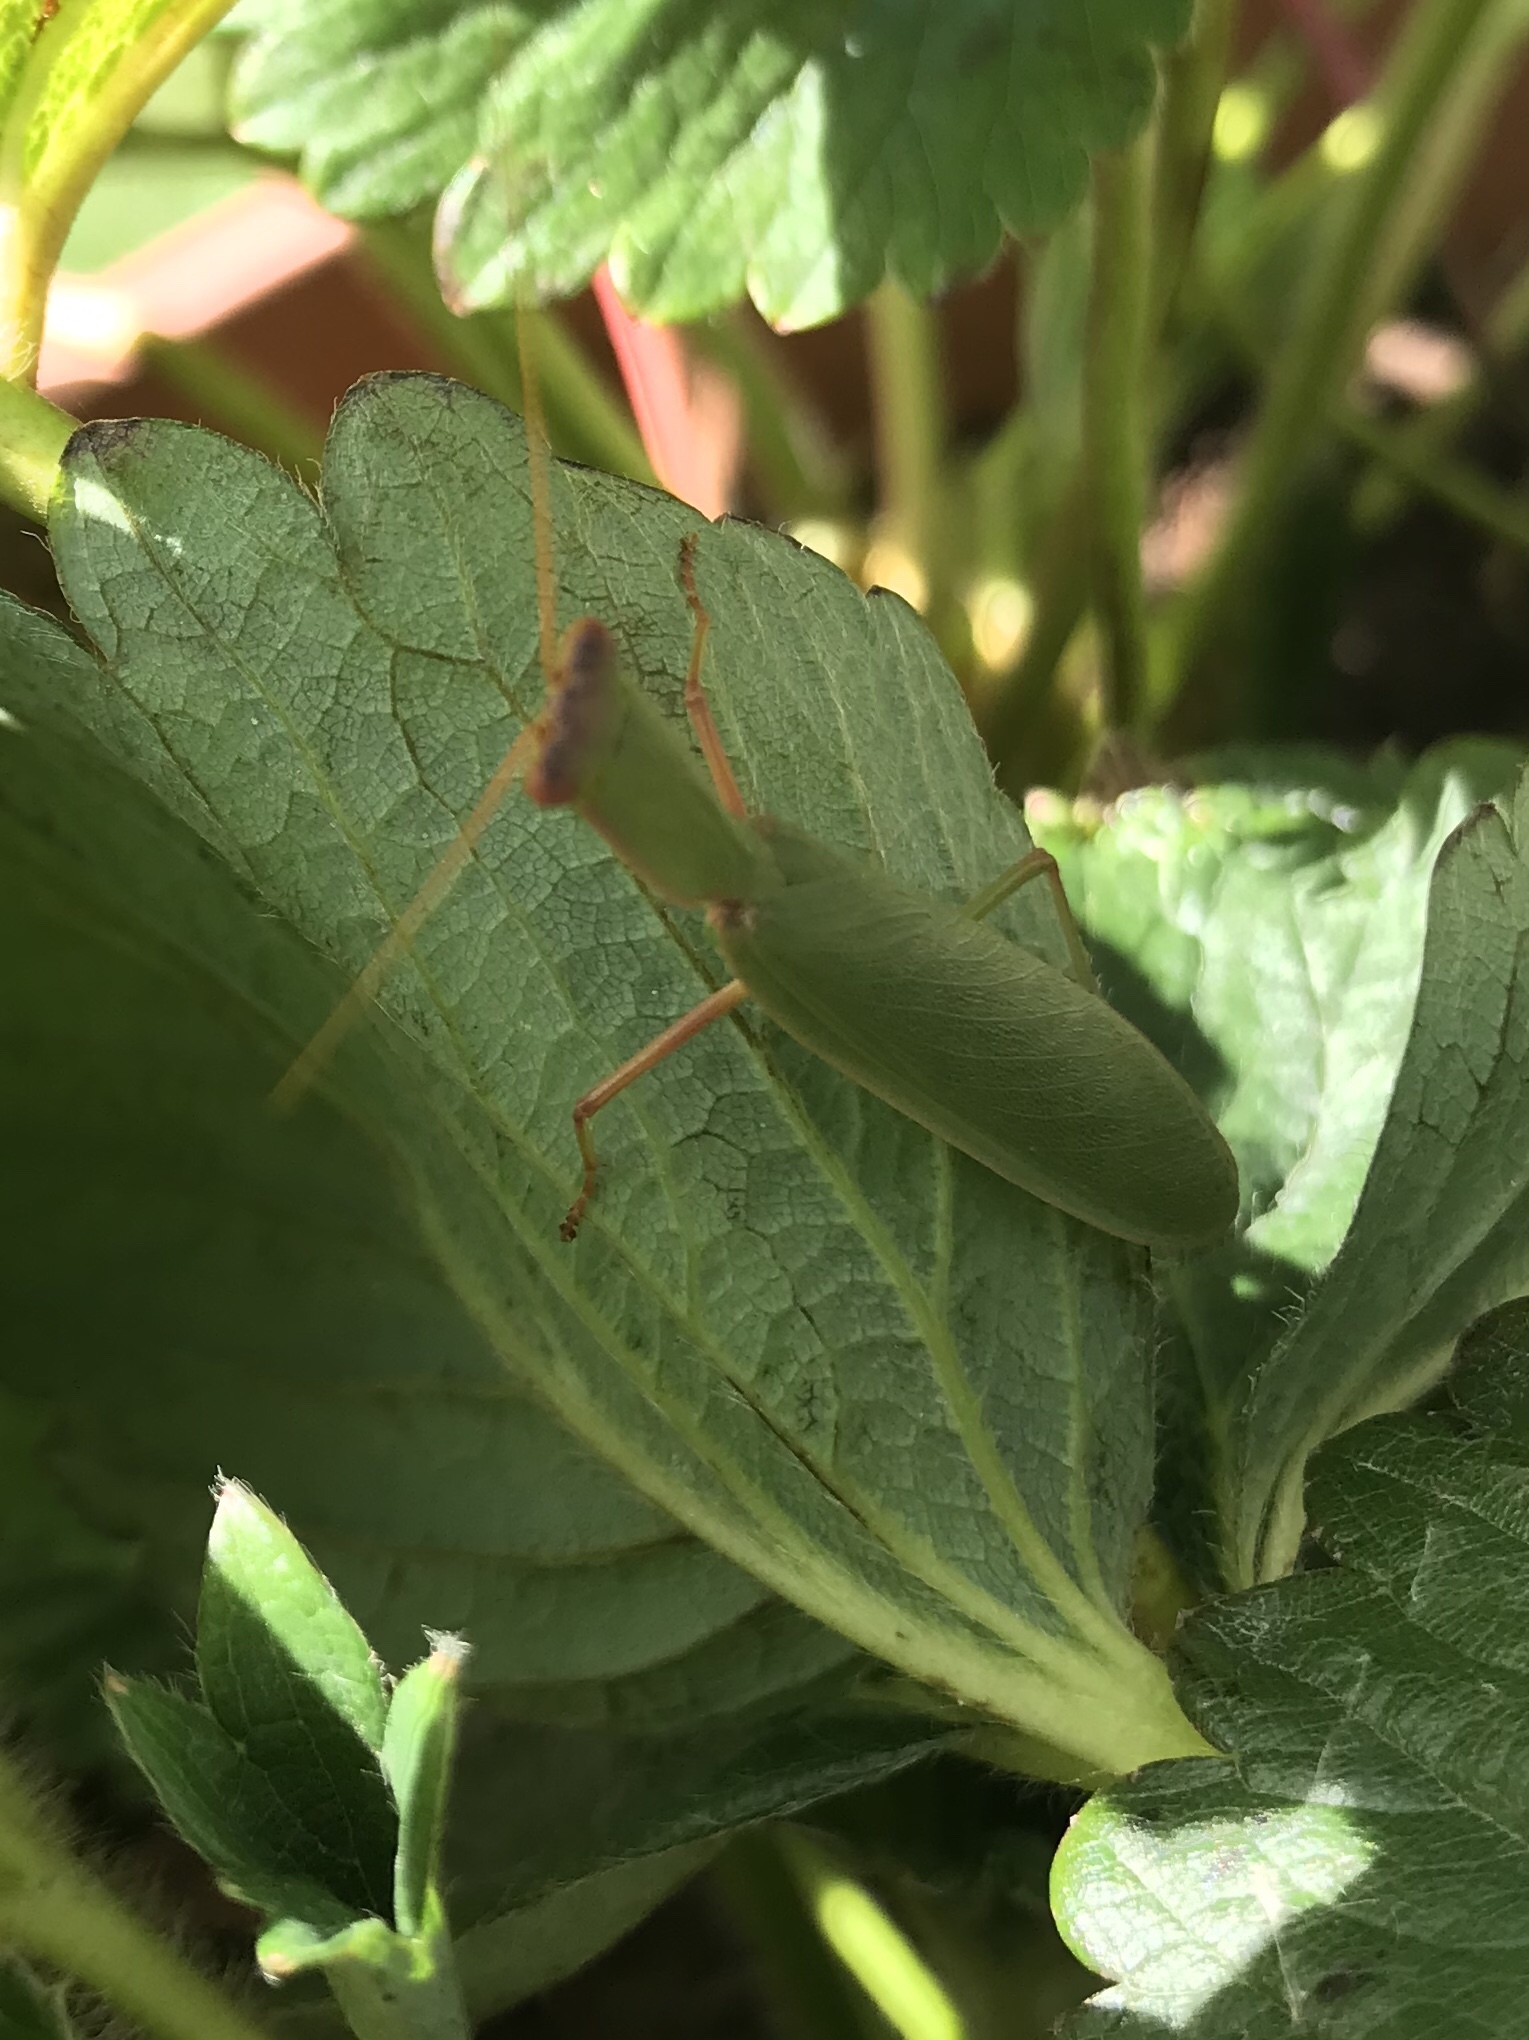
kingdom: Animalia
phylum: Arthropoda
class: Insecta
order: Mantodea
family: Mantidae
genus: Orthodera
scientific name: Orthodera novaezealandiae
